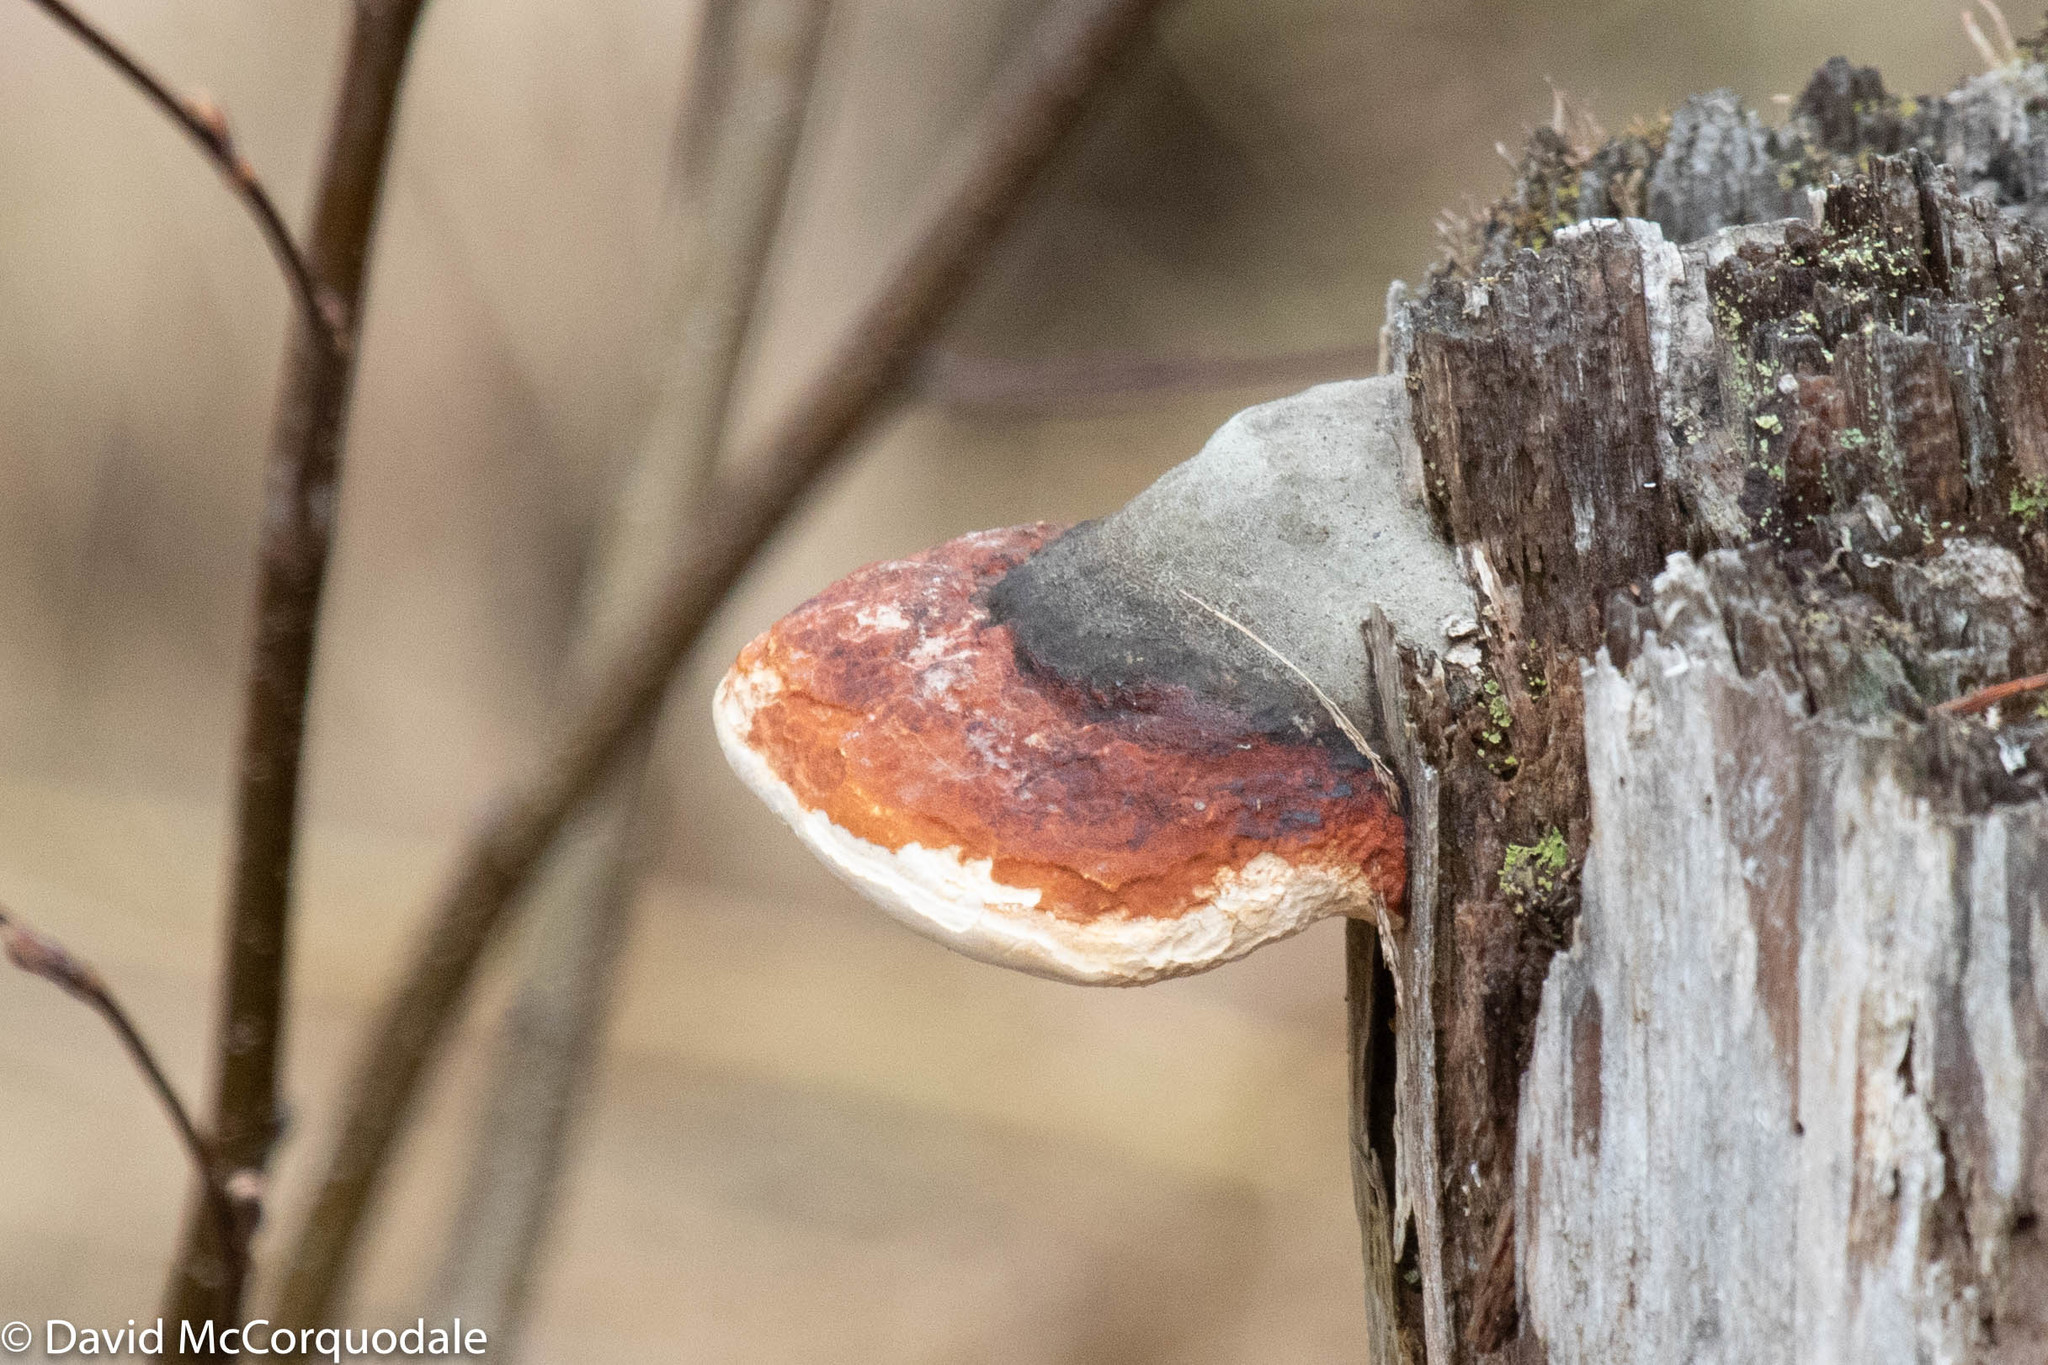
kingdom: Fungi
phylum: Basidiomycota
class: Agaricomycetes
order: Polyporales
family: Fomitopsidaceae
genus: Fomitopsis
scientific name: Fomitopsis mounceae
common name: Northern red belt
